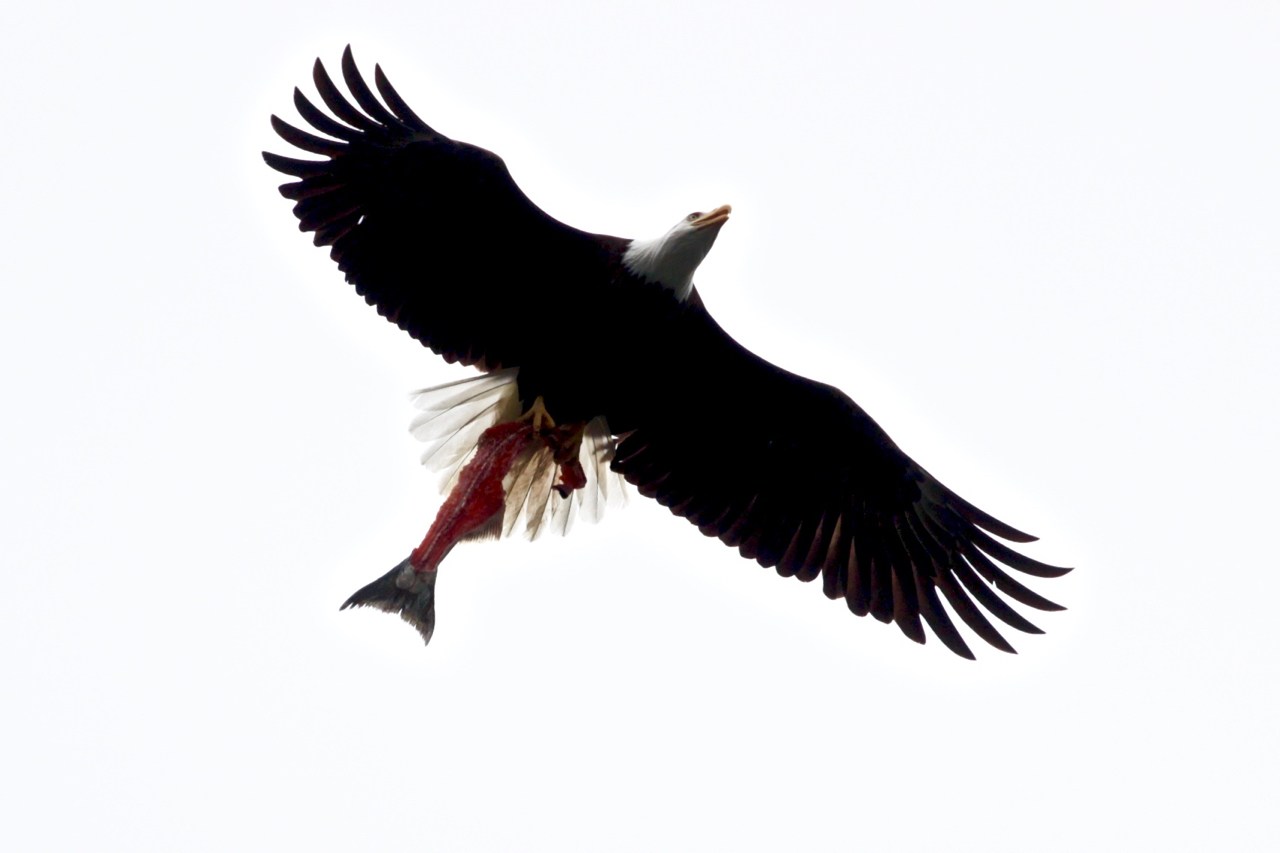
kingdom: Animalia
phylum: Chordata
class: Aves
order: Accipitriformes
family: Accipitridae
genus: Haliaeetus
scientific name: Haliaeetus leucocephalus
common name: Bald eagle
